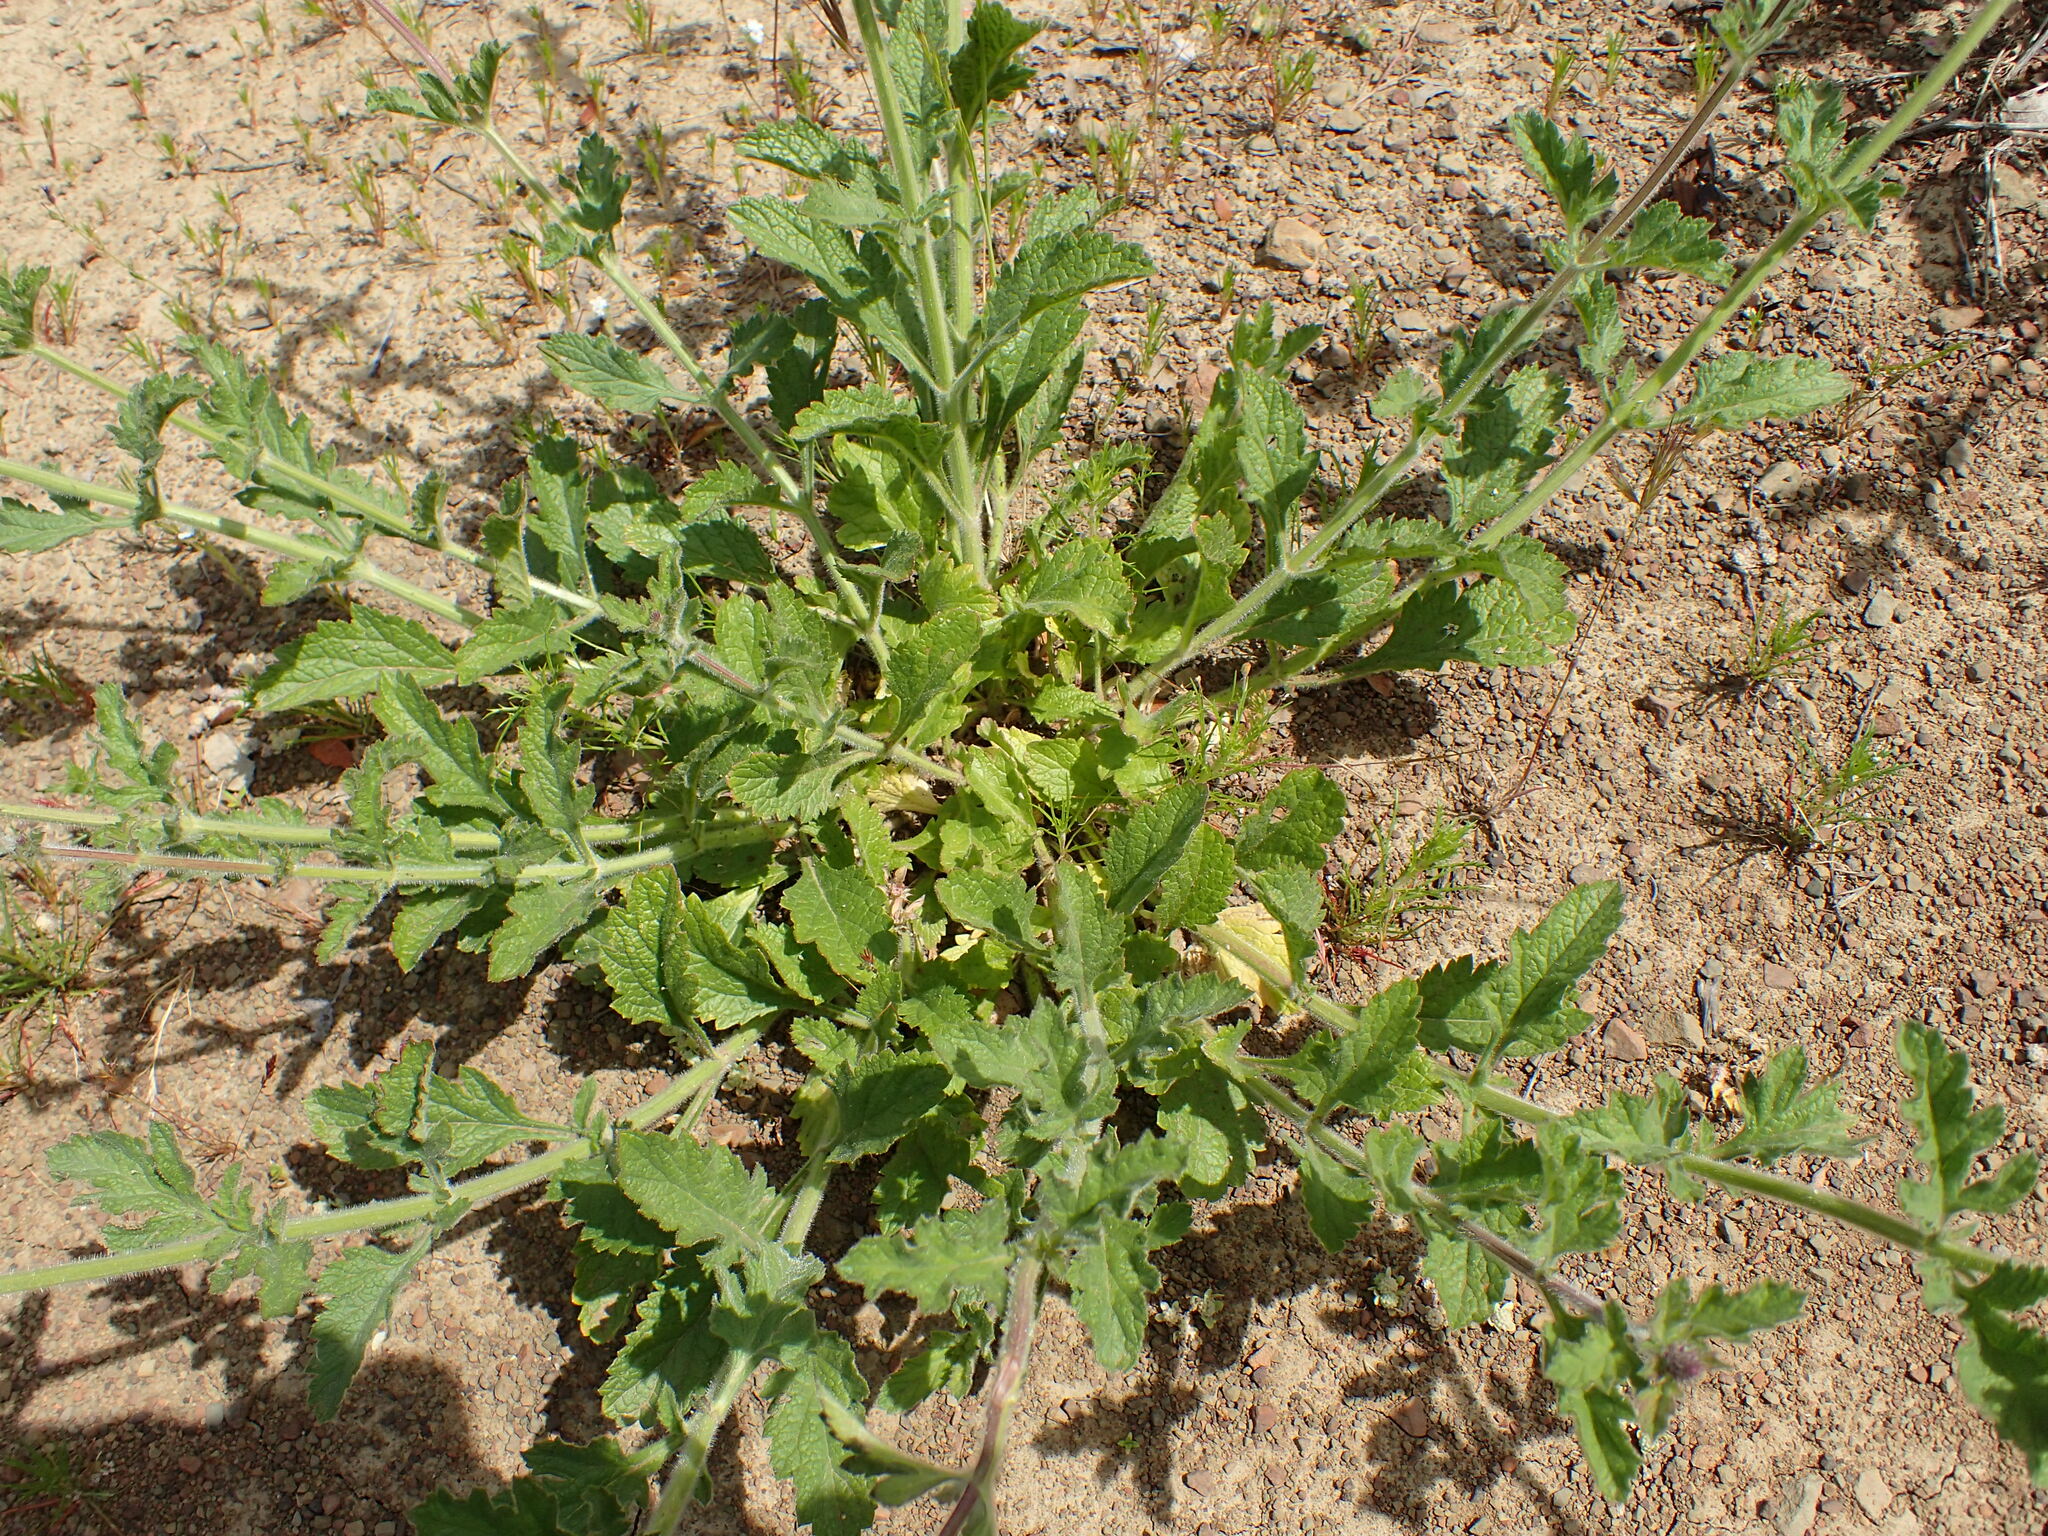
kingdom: Plantae
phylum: Tracheophyta
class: Magnoliopsida
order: Lamiales
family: Verbenaceae
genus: Verbena
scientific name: Verbena lasiostachys
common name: Vervain
